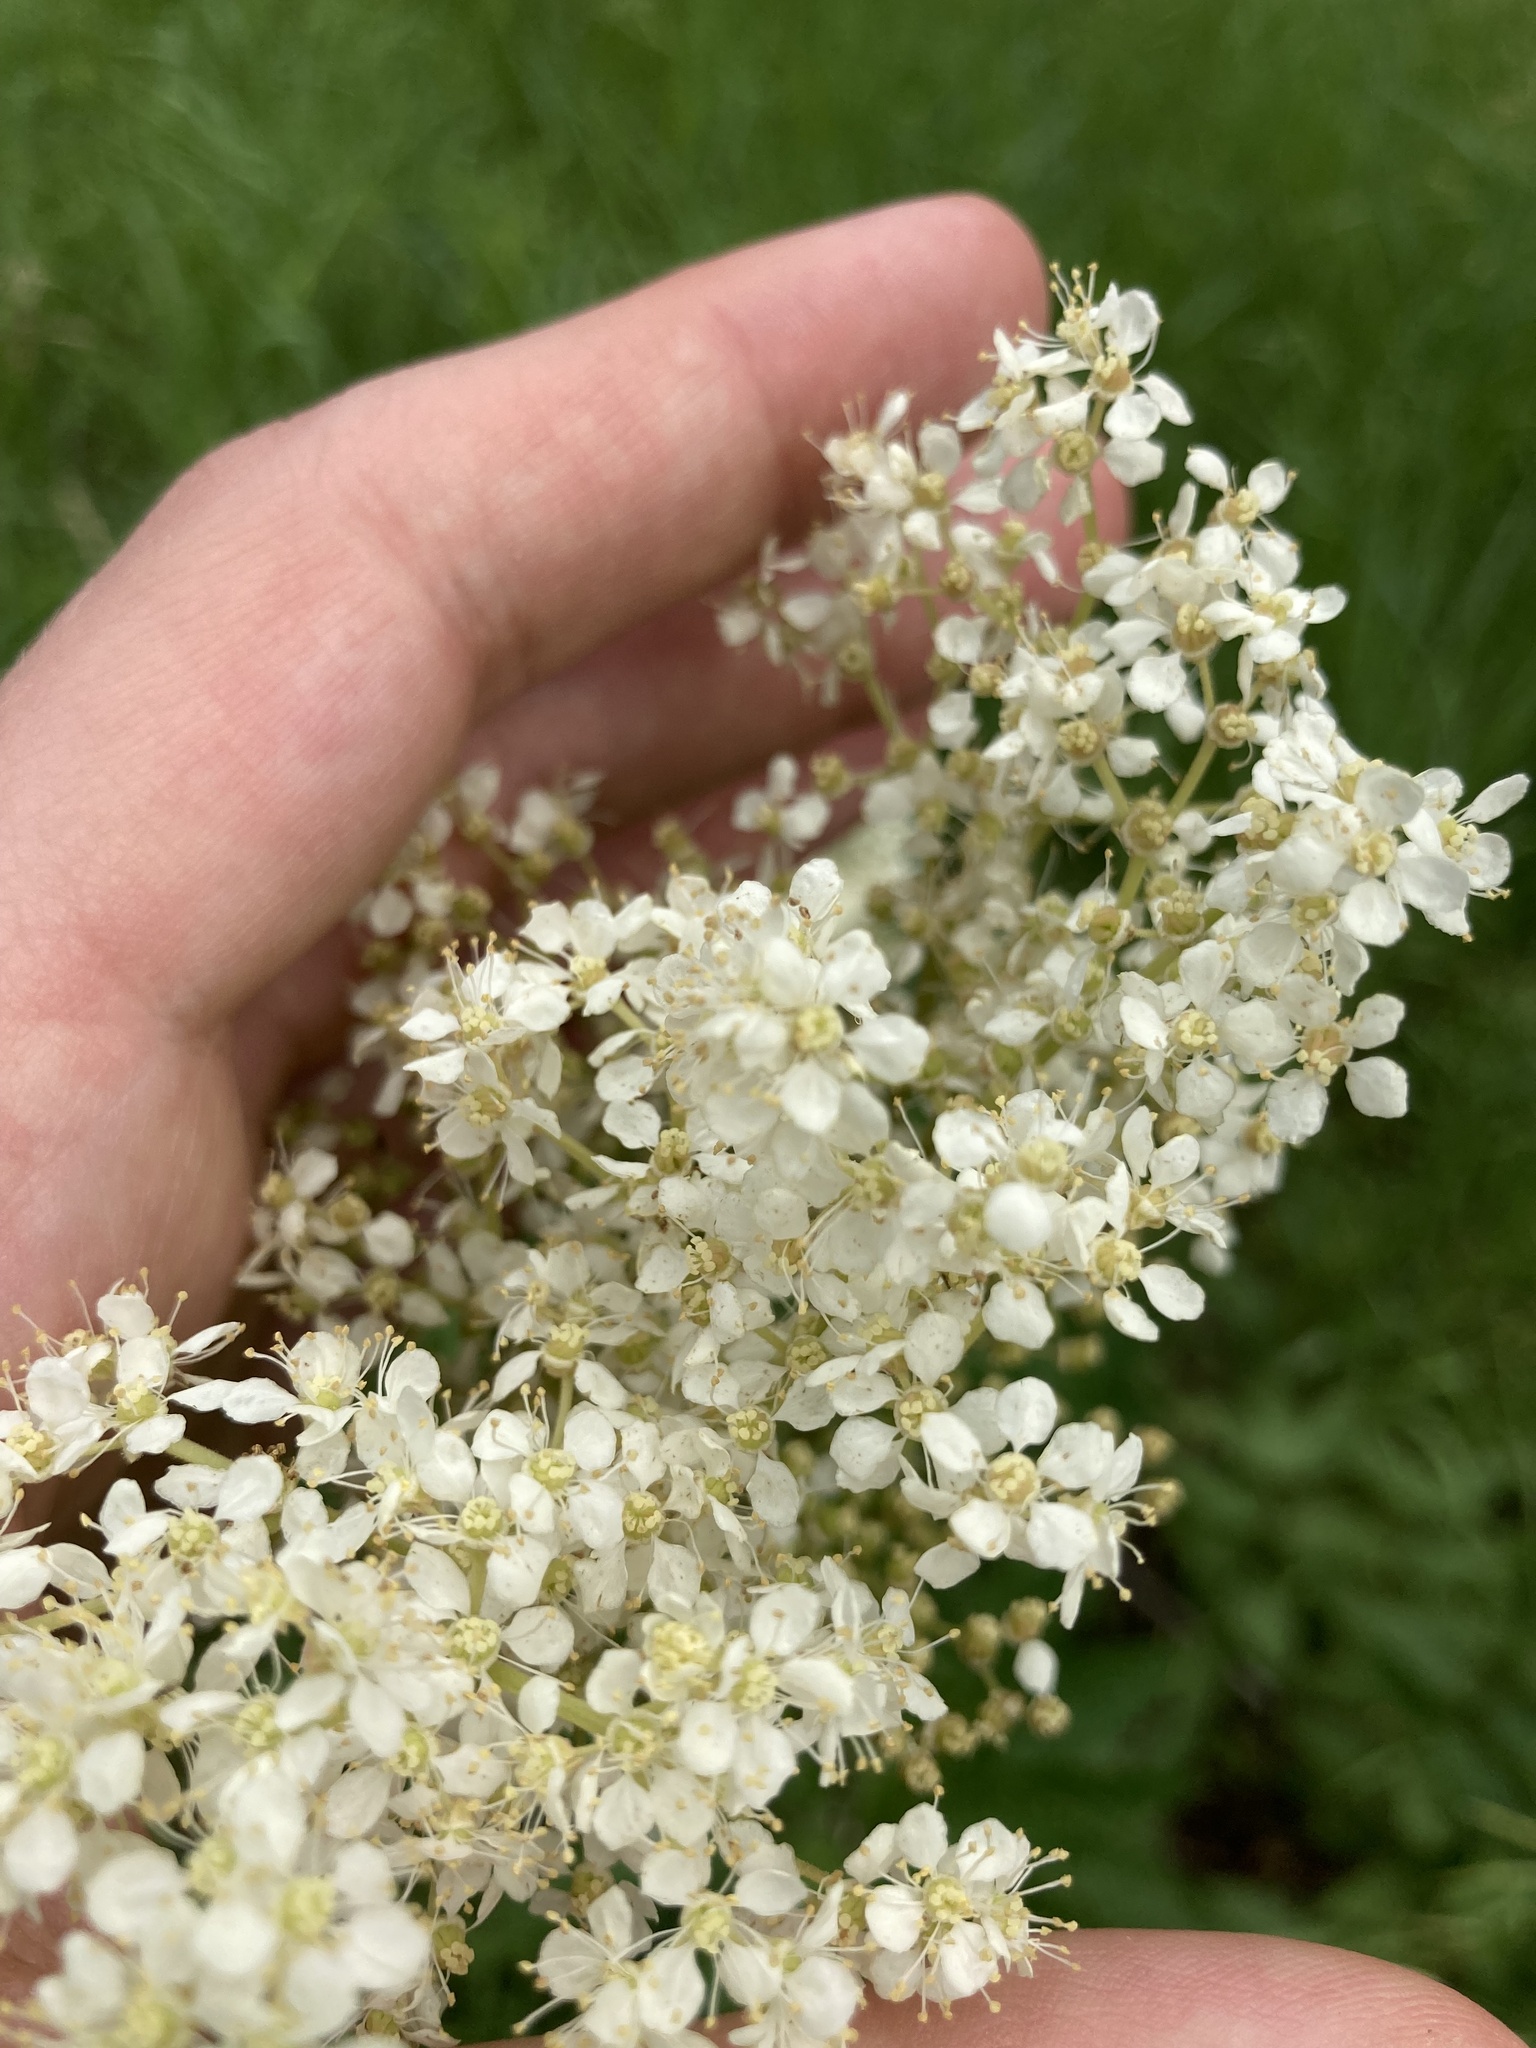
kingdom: Plantae
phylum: Tracheophyta
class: Magnoliopsida
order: Rosales
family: Rosaceae
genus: Filipendula
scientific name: Filipendula ulmaria
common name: Meadowsweet
